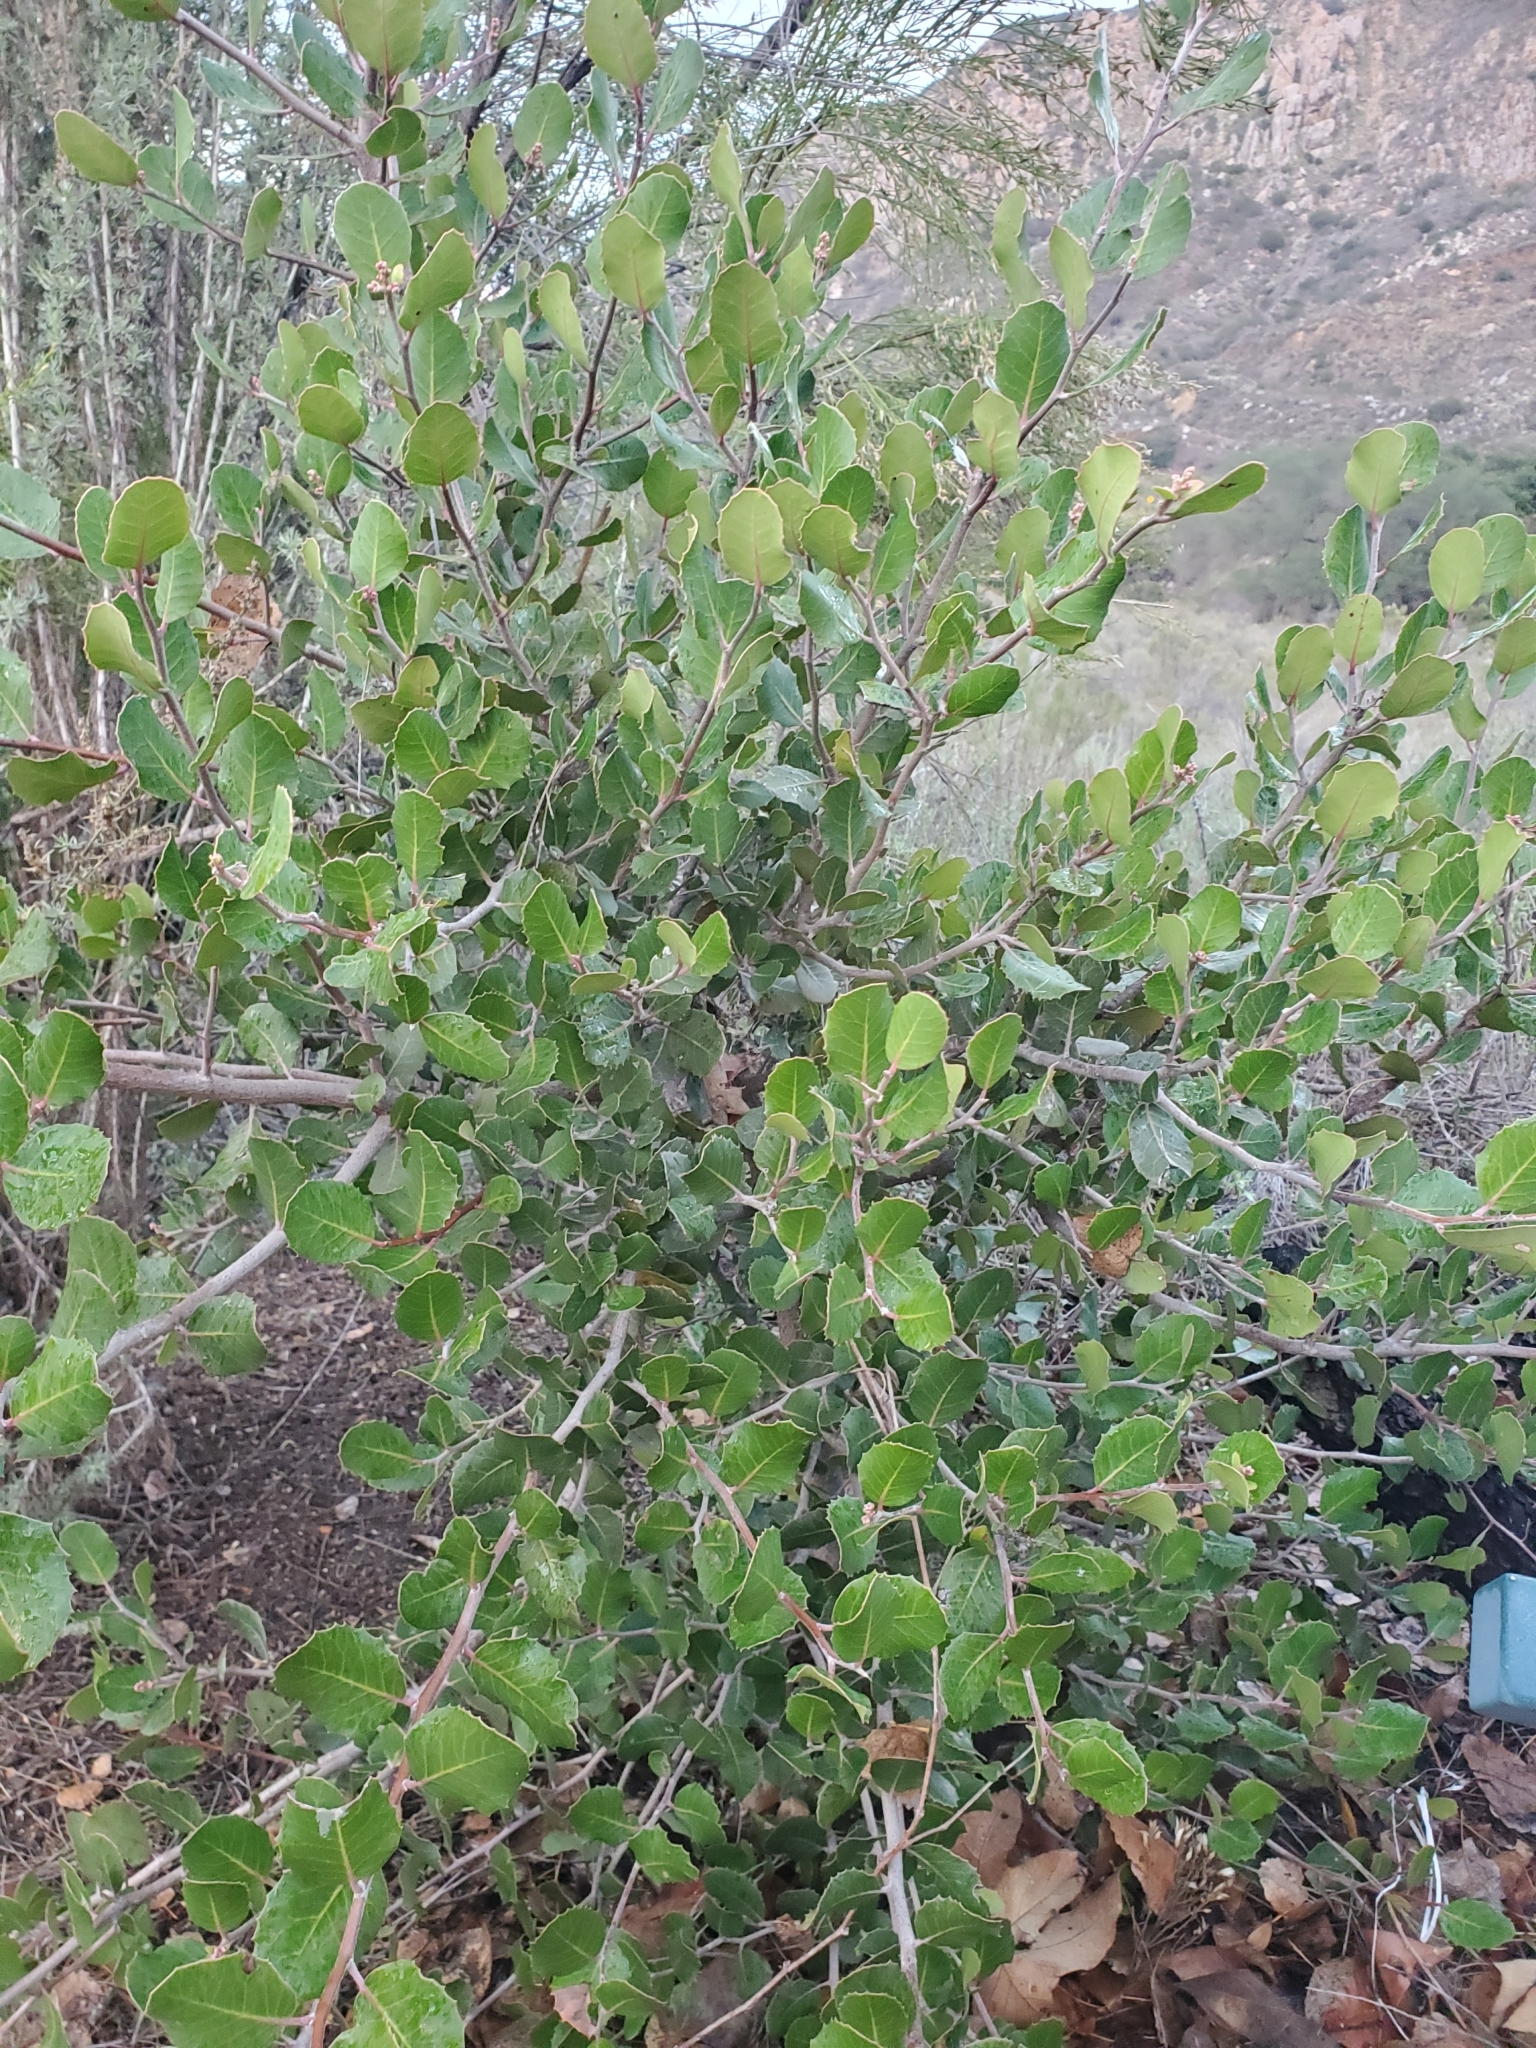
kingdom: Plantae
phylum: Tracheophyta
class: Magnoliopsida
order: Sapindales
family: Anacardiaceae
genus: Rhus
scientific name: Rhus integrifolia
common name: Lemonade sumac
